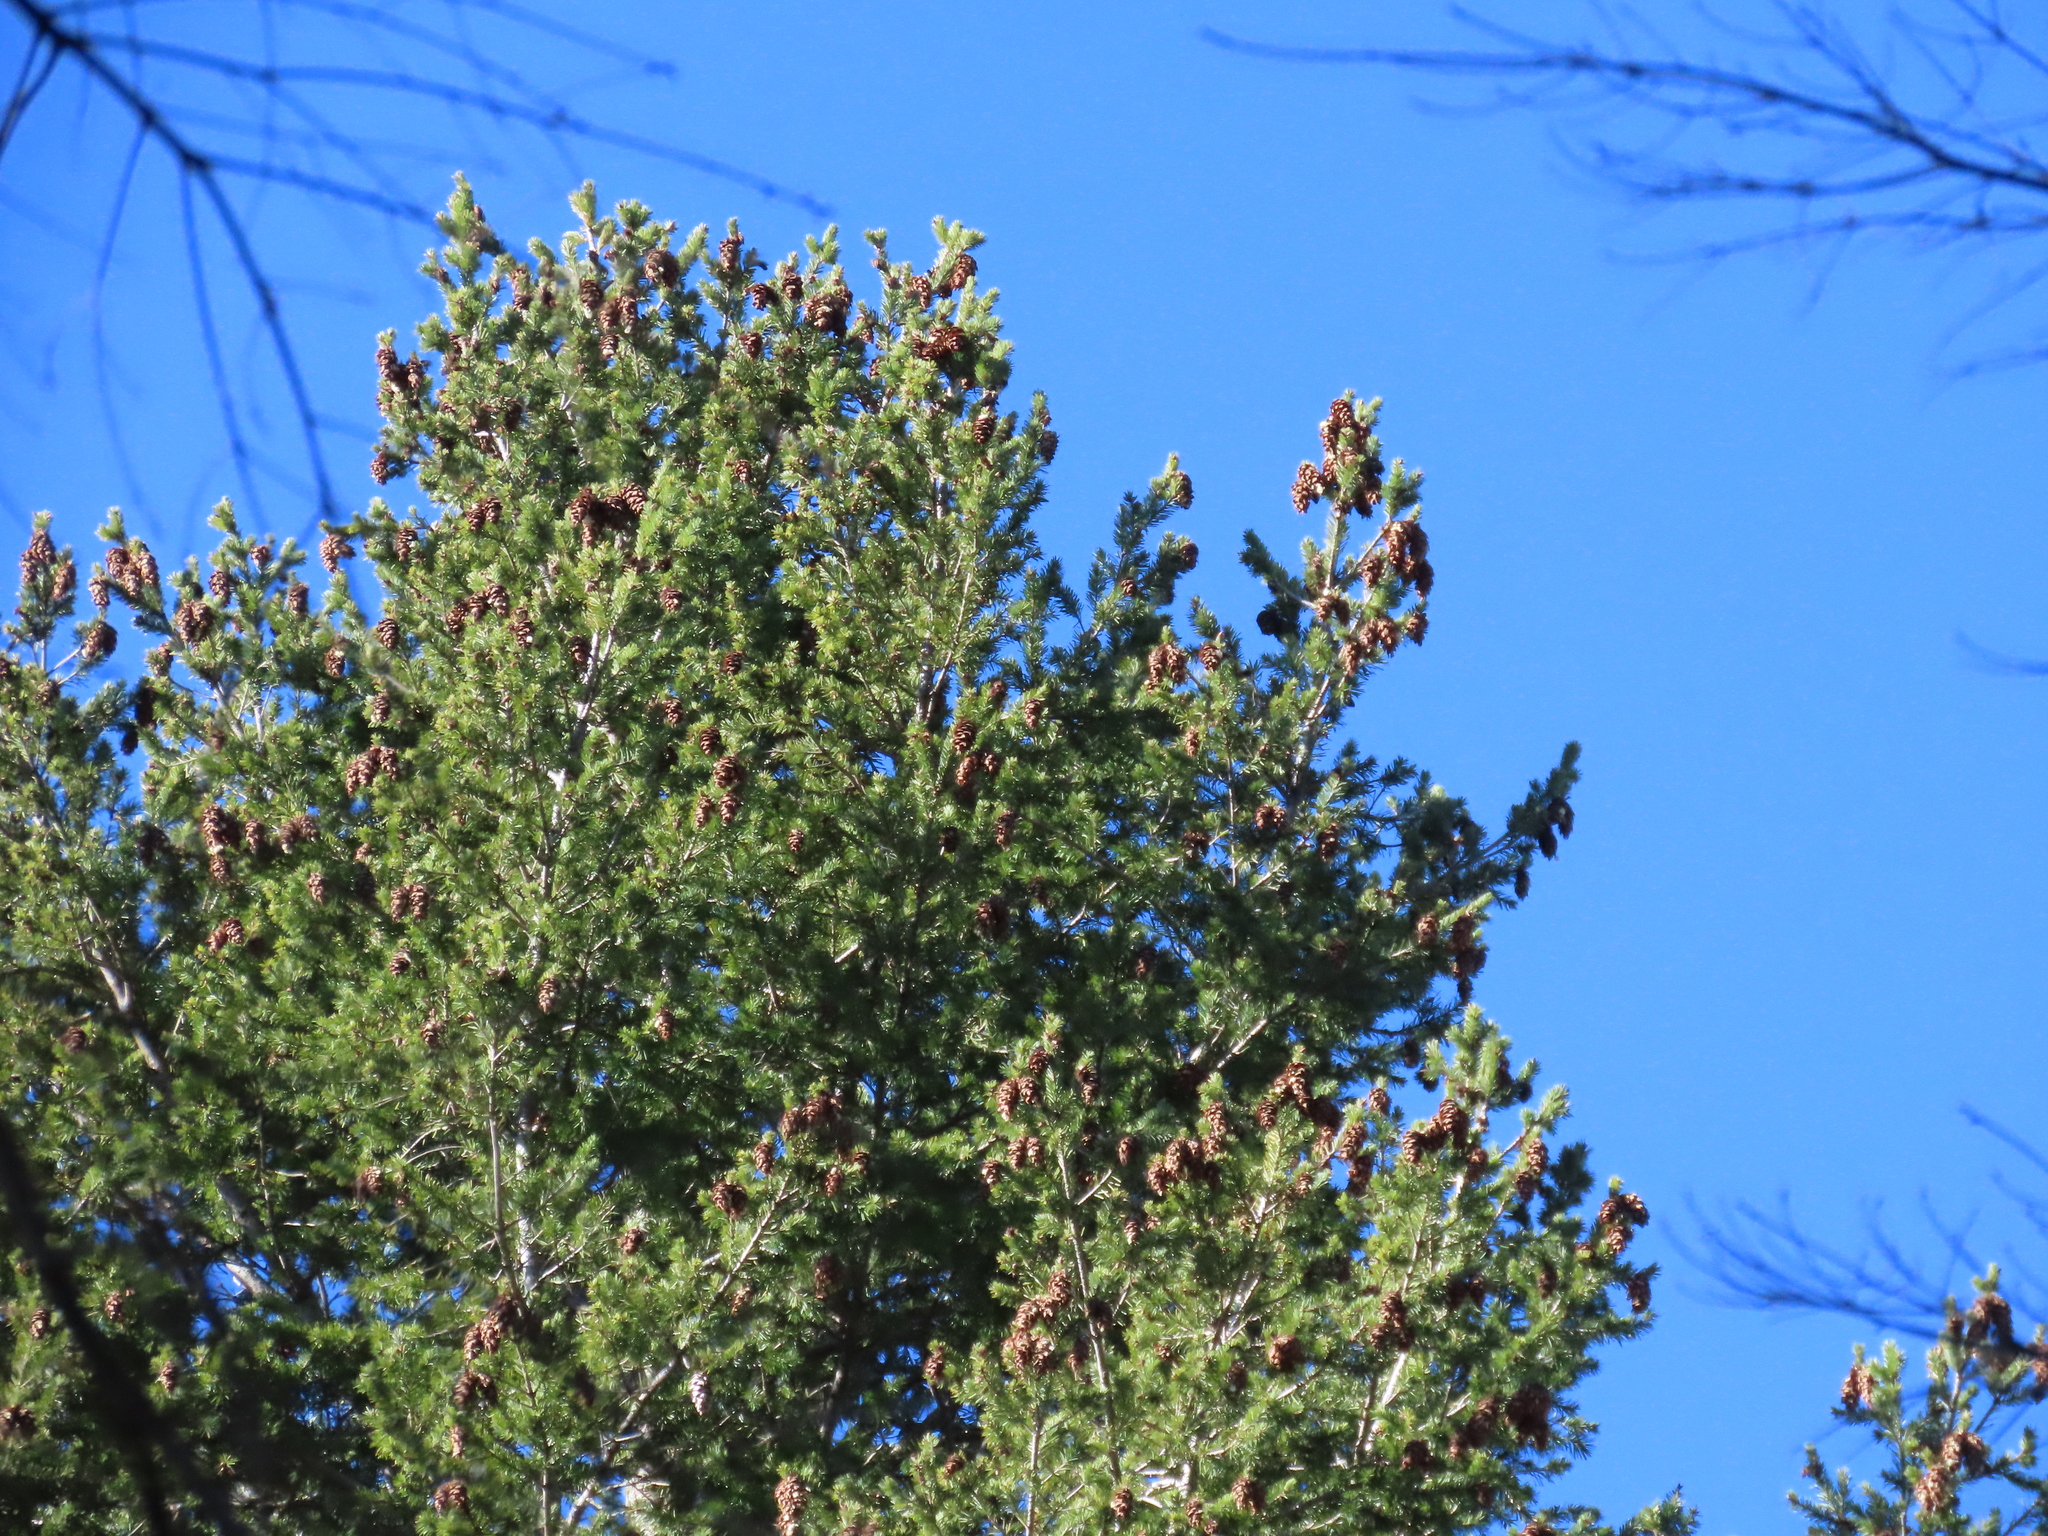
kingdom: Plantae
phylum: Tracheophyta
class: Pinopsida
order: Pinales
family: Pinaceae
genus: Pseudotsuga
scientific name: Pseudotsuga menziesii
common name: Douglas fir
